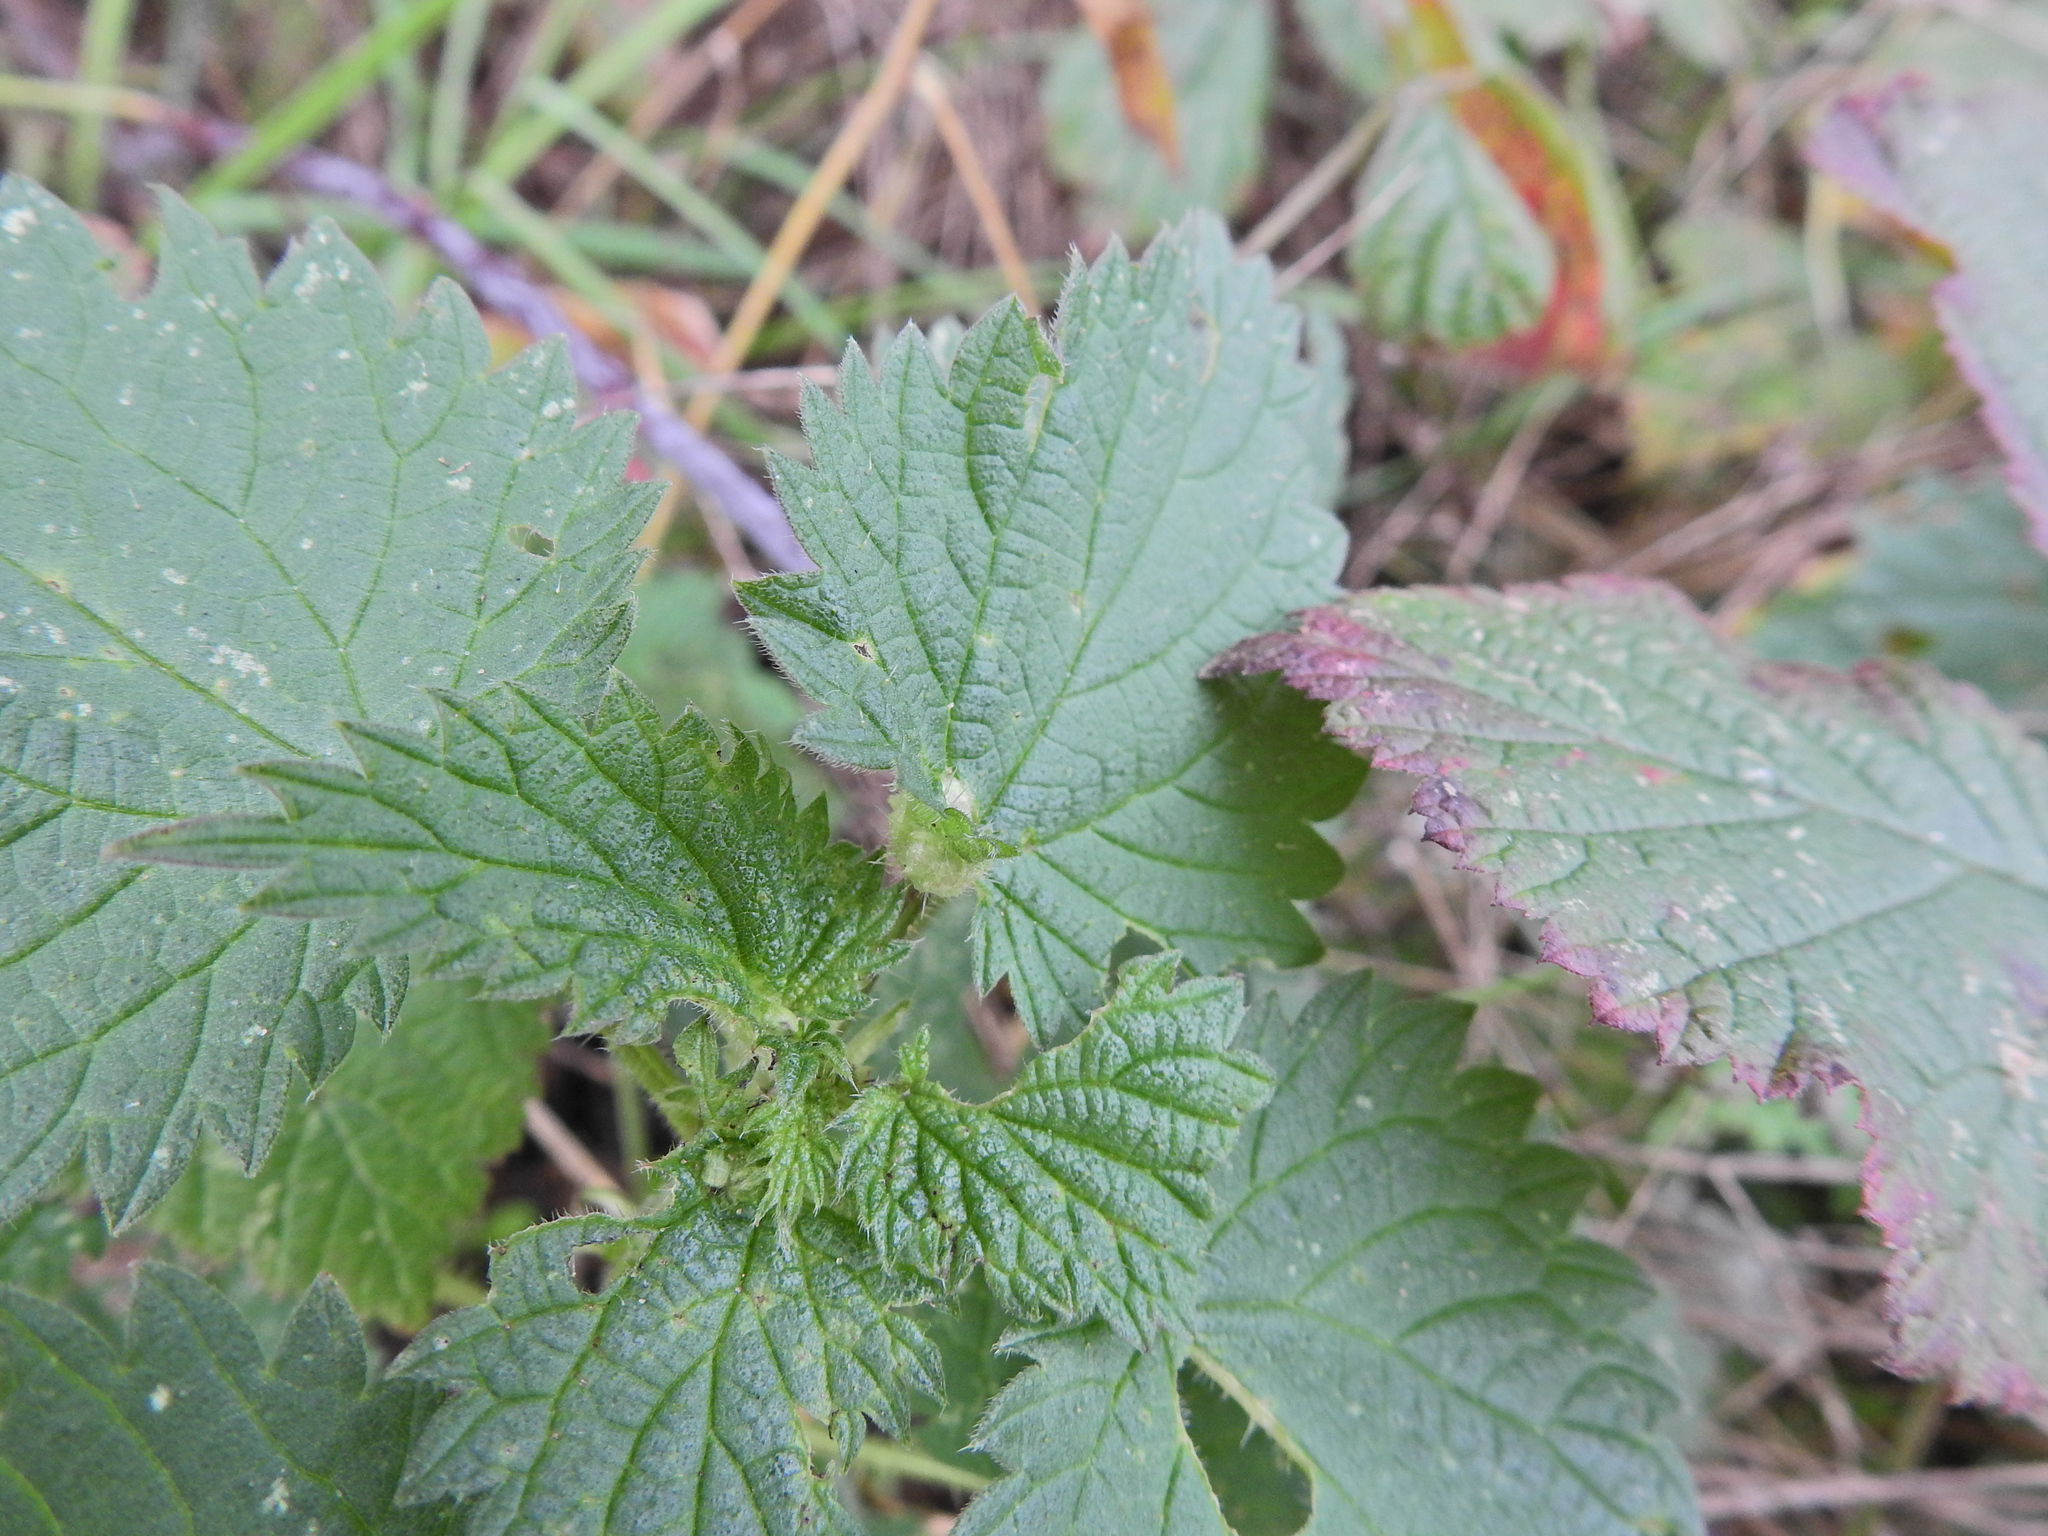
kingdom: Animalia
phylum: Arthropoda
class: Insecta
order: Diptera
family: Cecidomyiidae
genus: Dasineura
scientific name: Dasineura urticae
